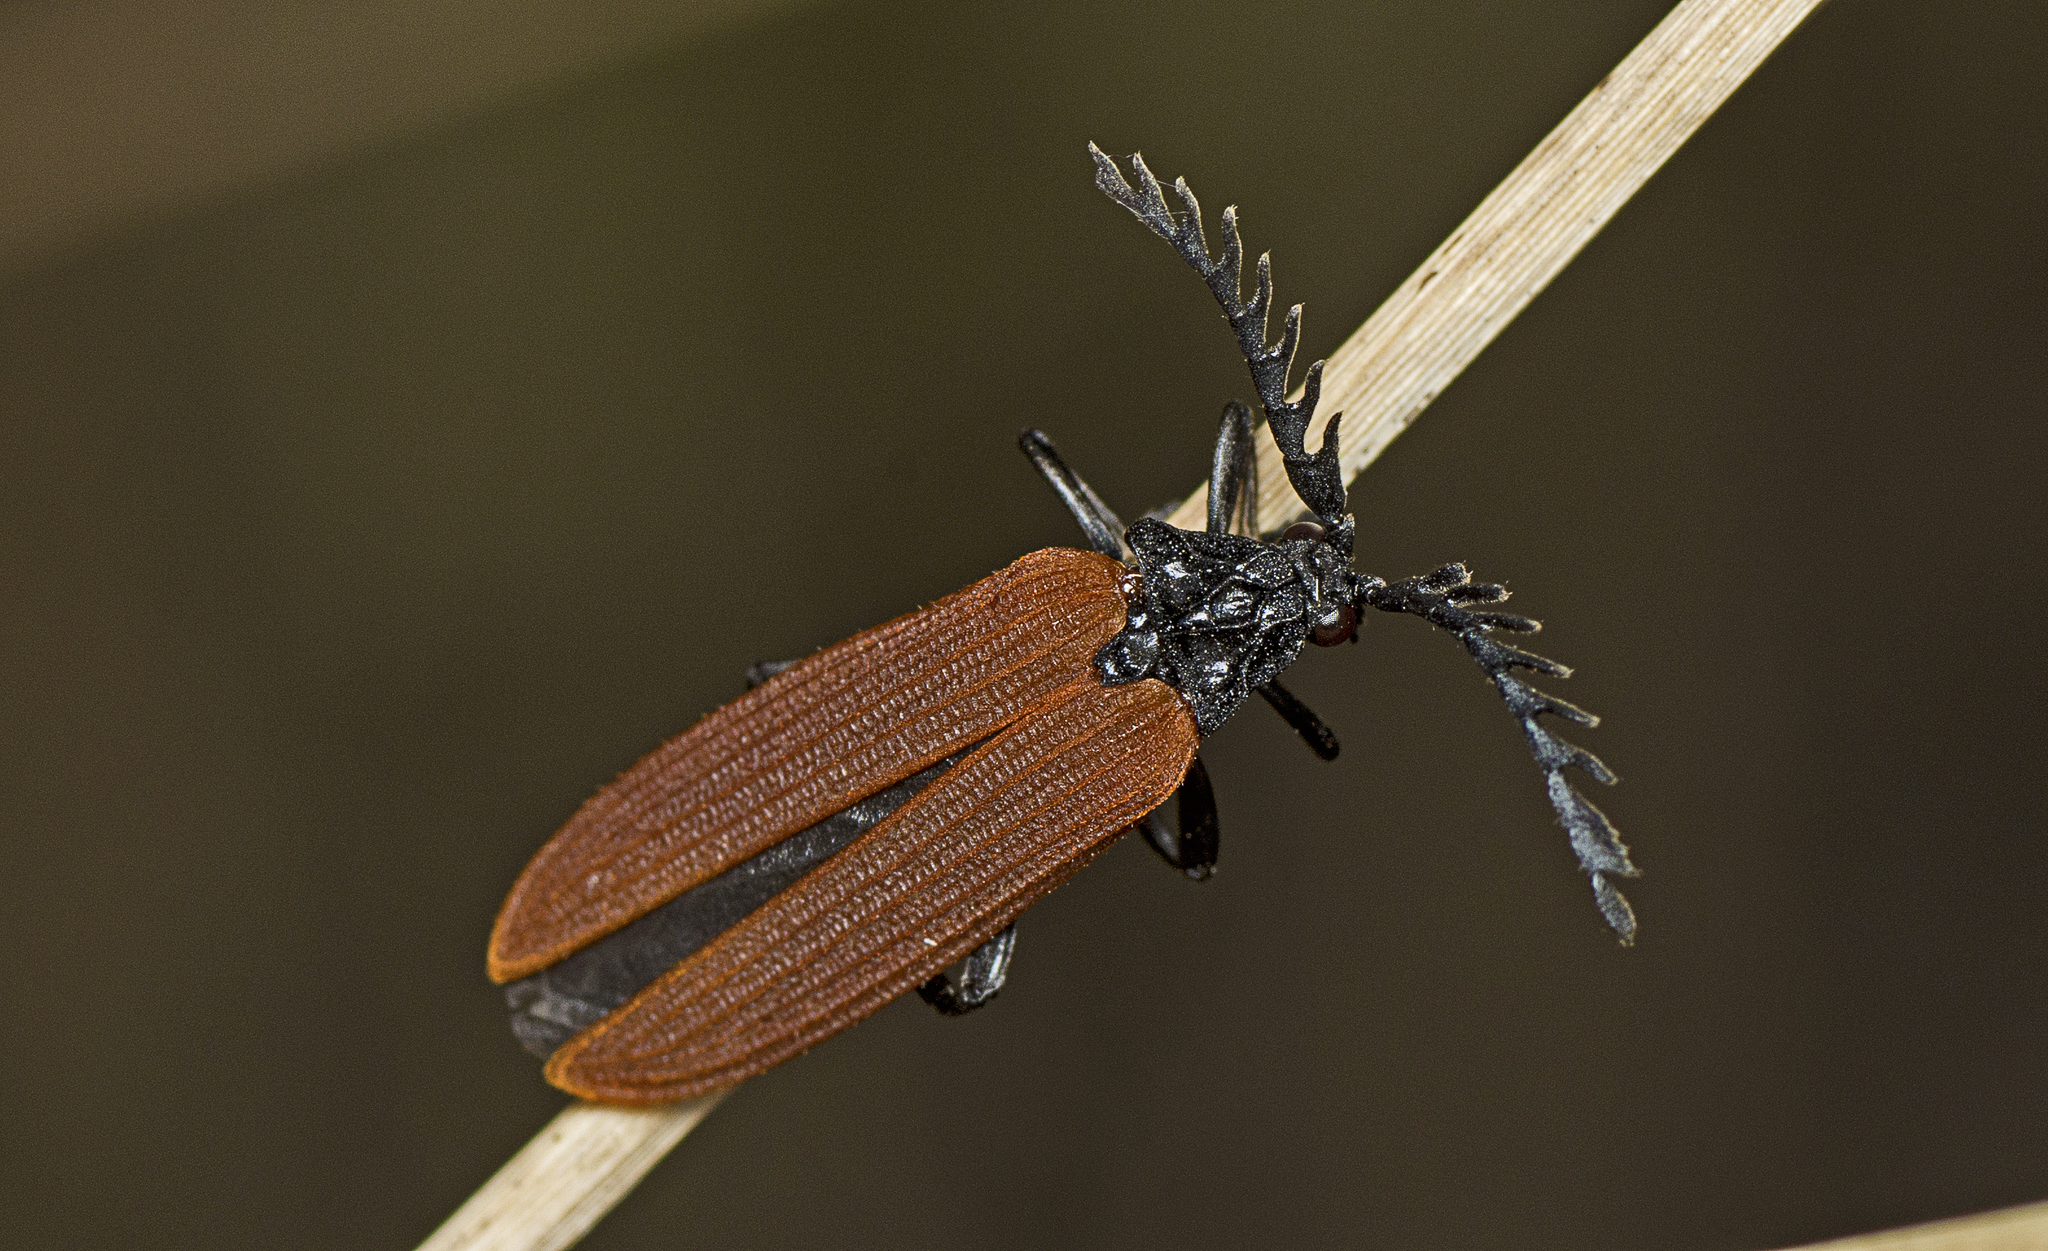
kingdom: Animalia
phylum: Arthropoda
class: Insecta
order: Coleoptera
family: Lycidae
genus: Porrostoma
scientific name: Porrostoma rhipidium
